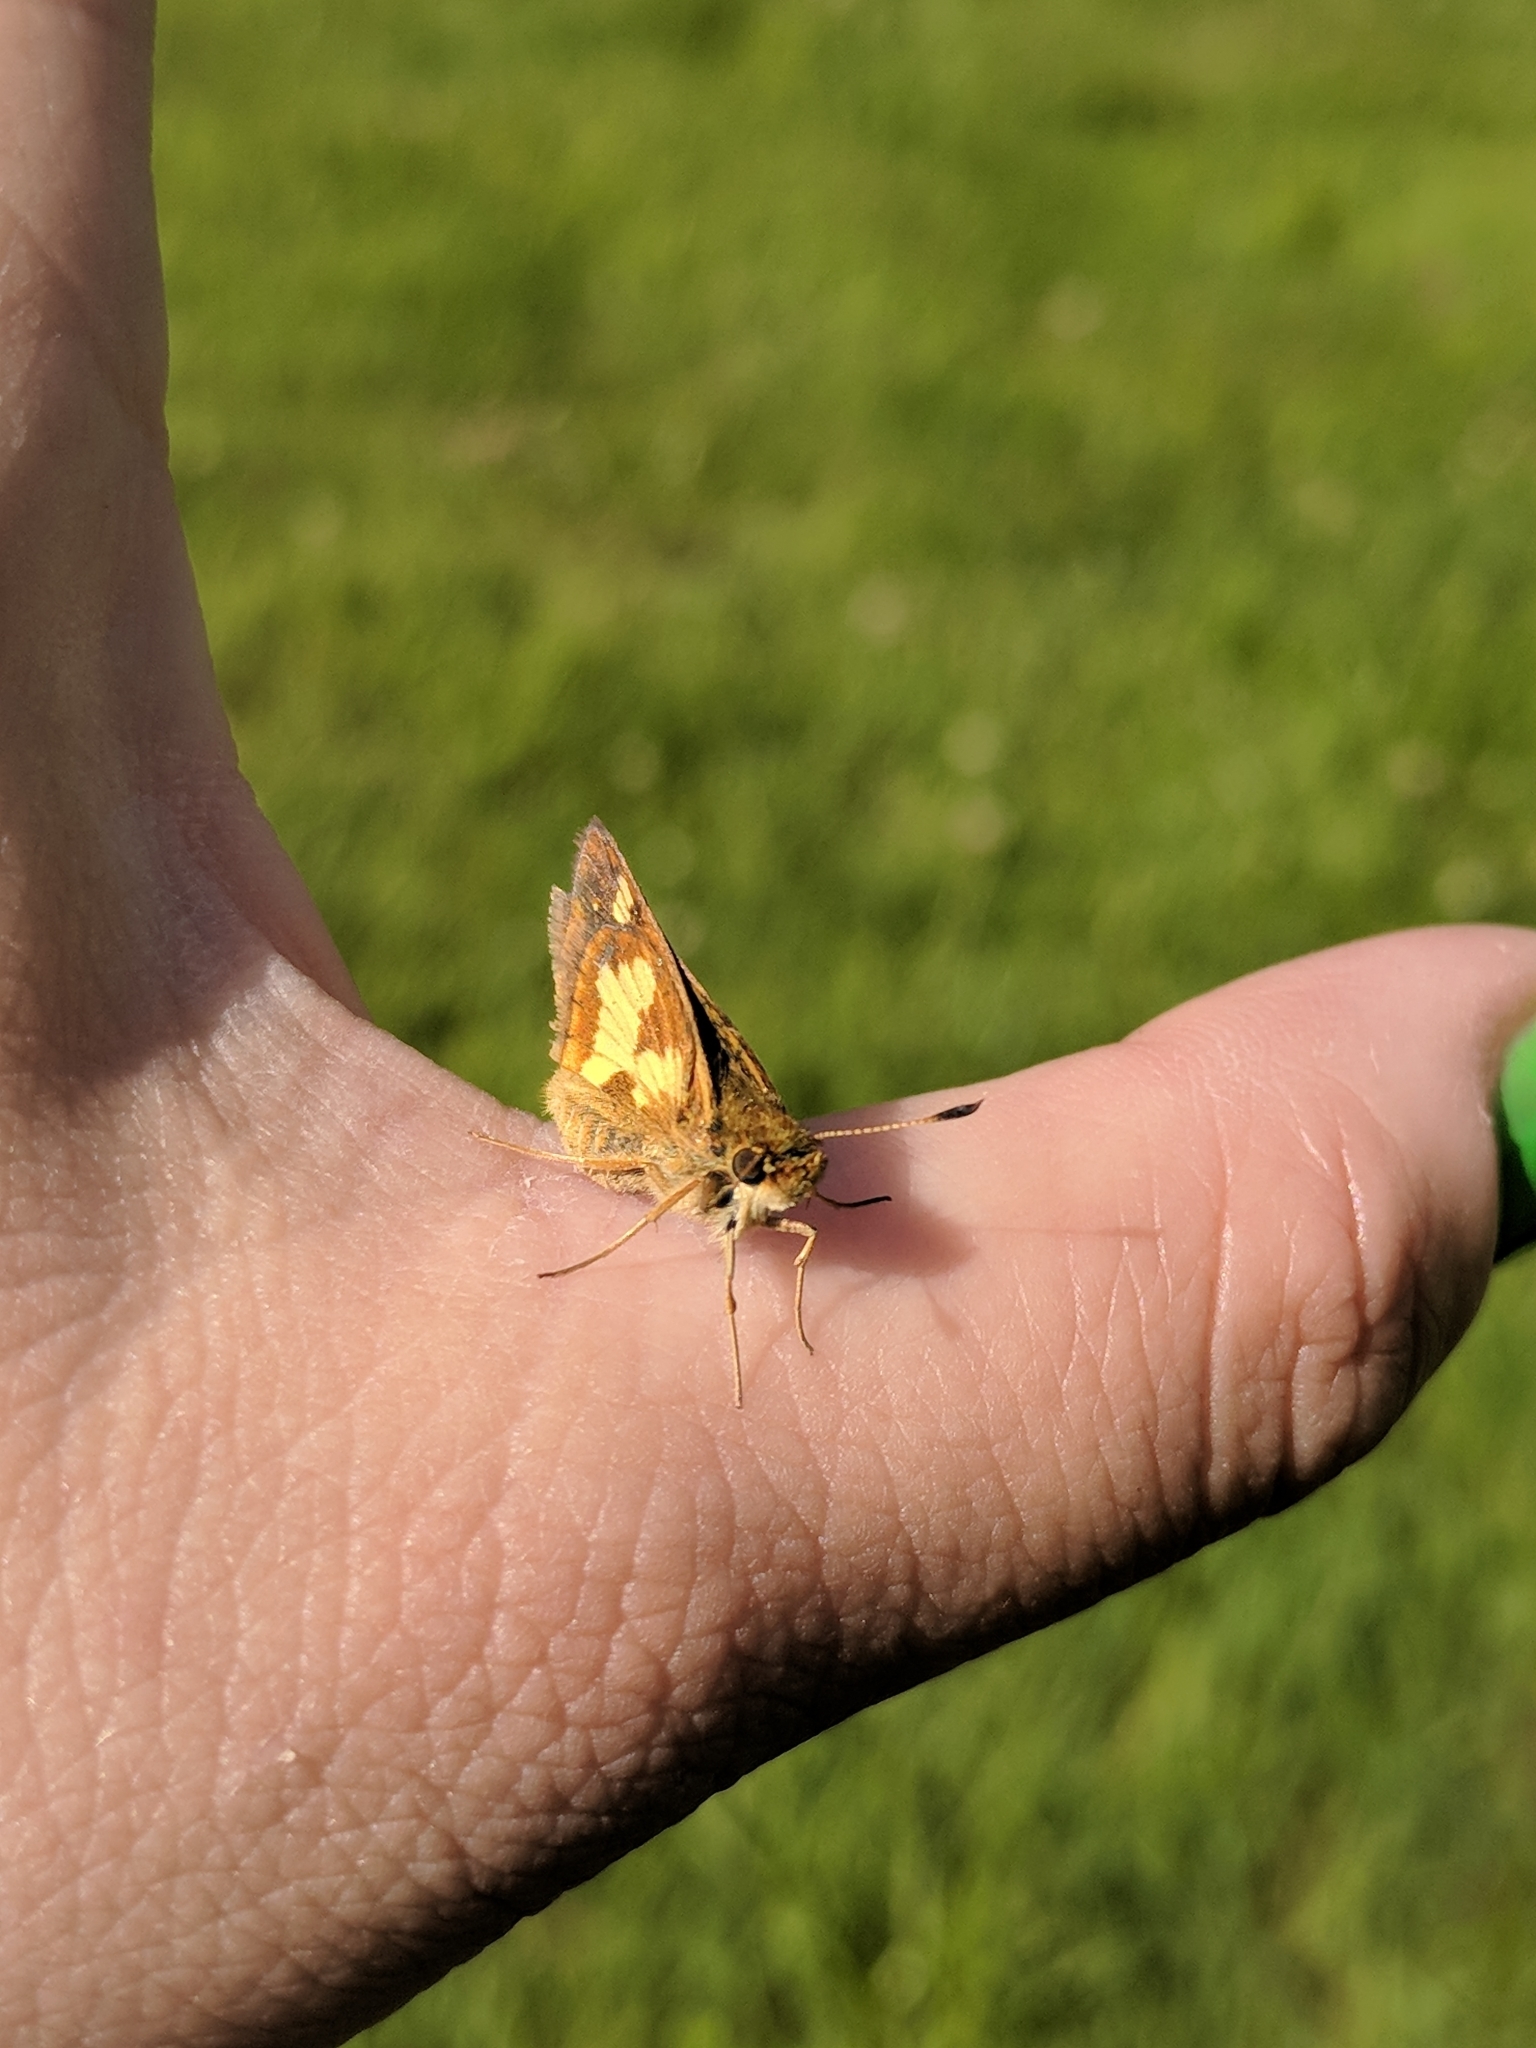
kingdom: Animalia
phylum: Arthropoda
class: Insecta
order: Lepidoptera
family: Hesperiidae
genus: Polites
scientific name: Polites coras
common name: Peck's skipper
